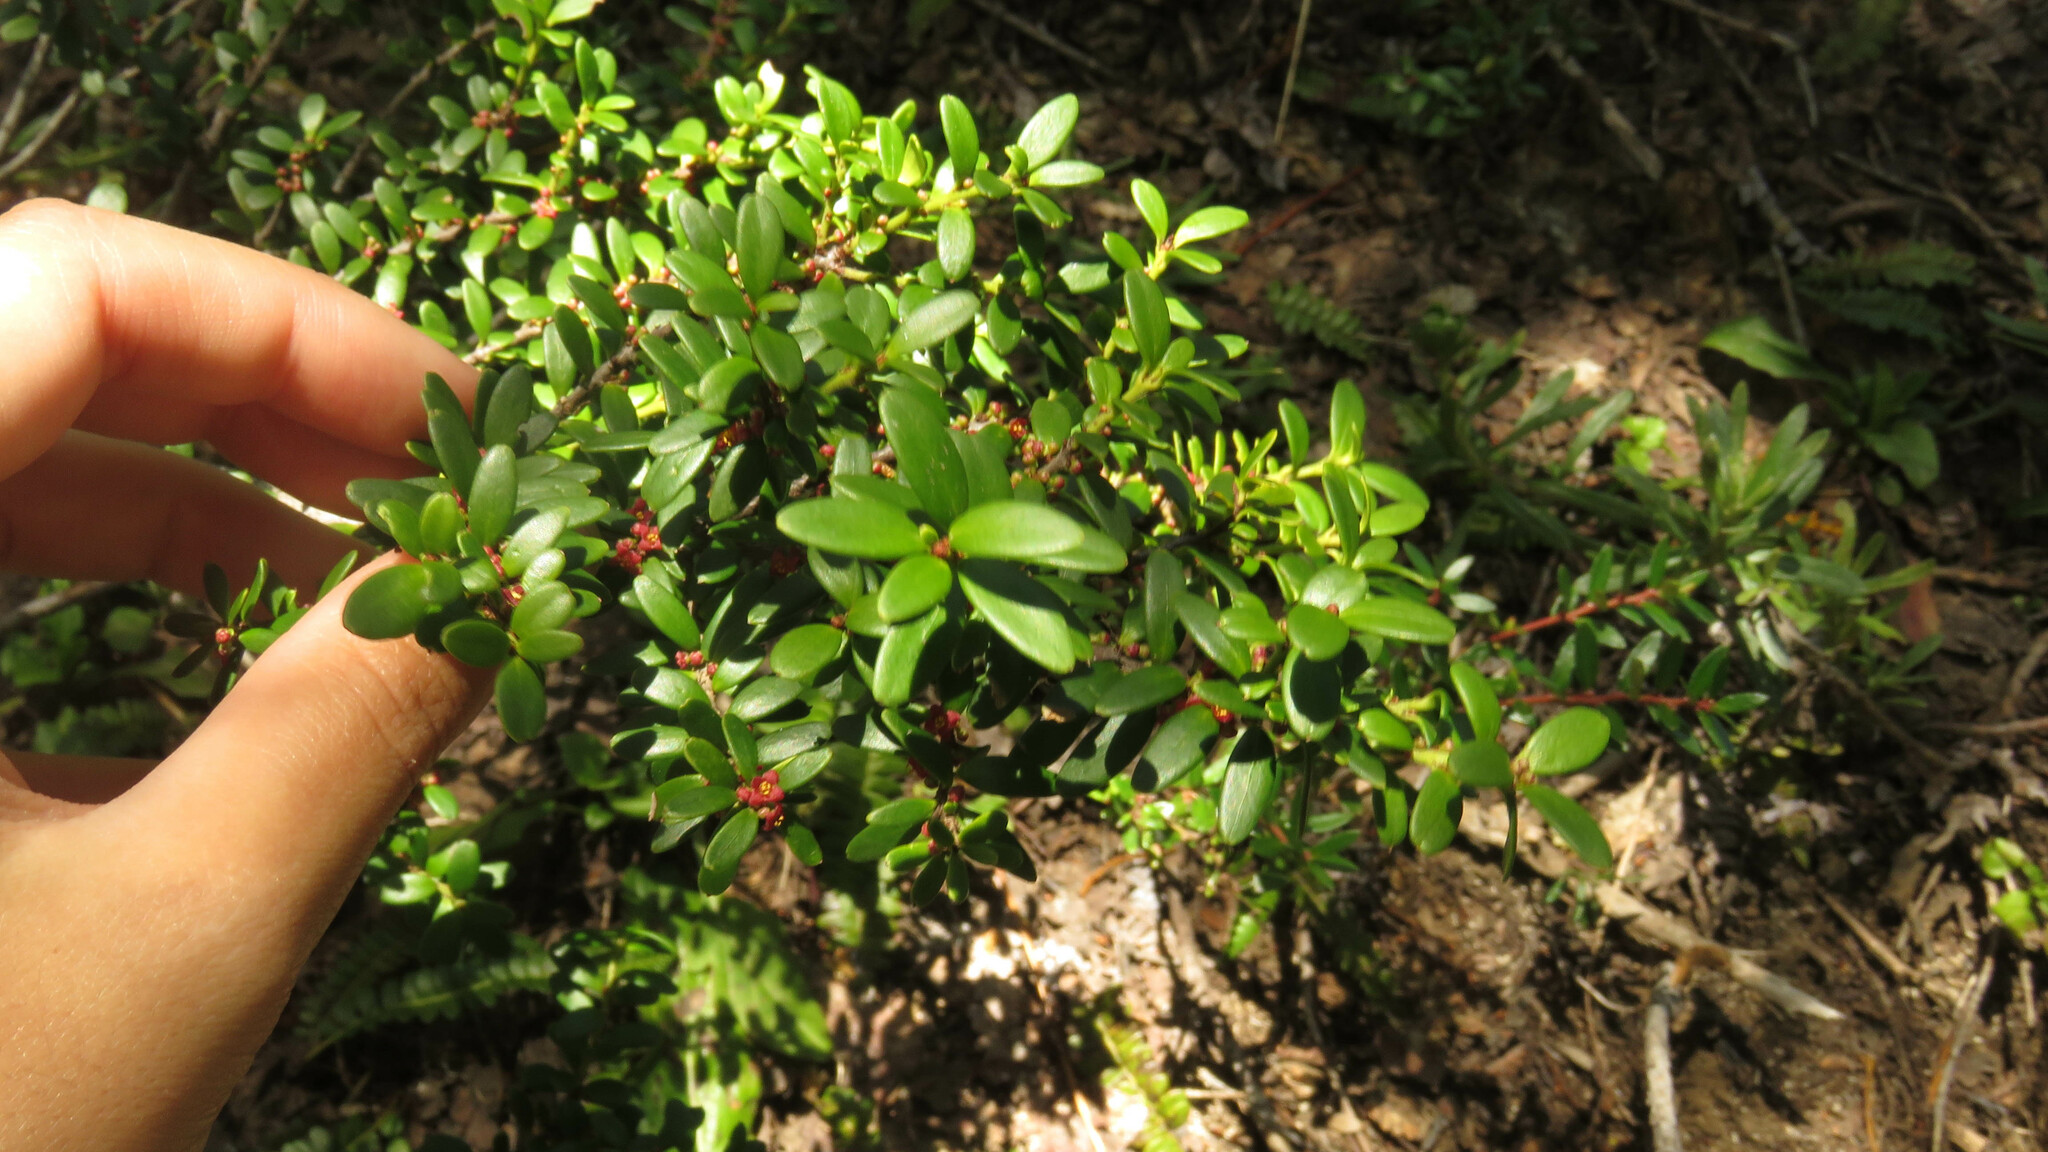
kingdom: Plantae
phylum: Tracheophyta
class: Magnoliopsida
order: Celastrales
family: Celastraceae
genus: Maytenus
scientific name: Maytenus disticha
